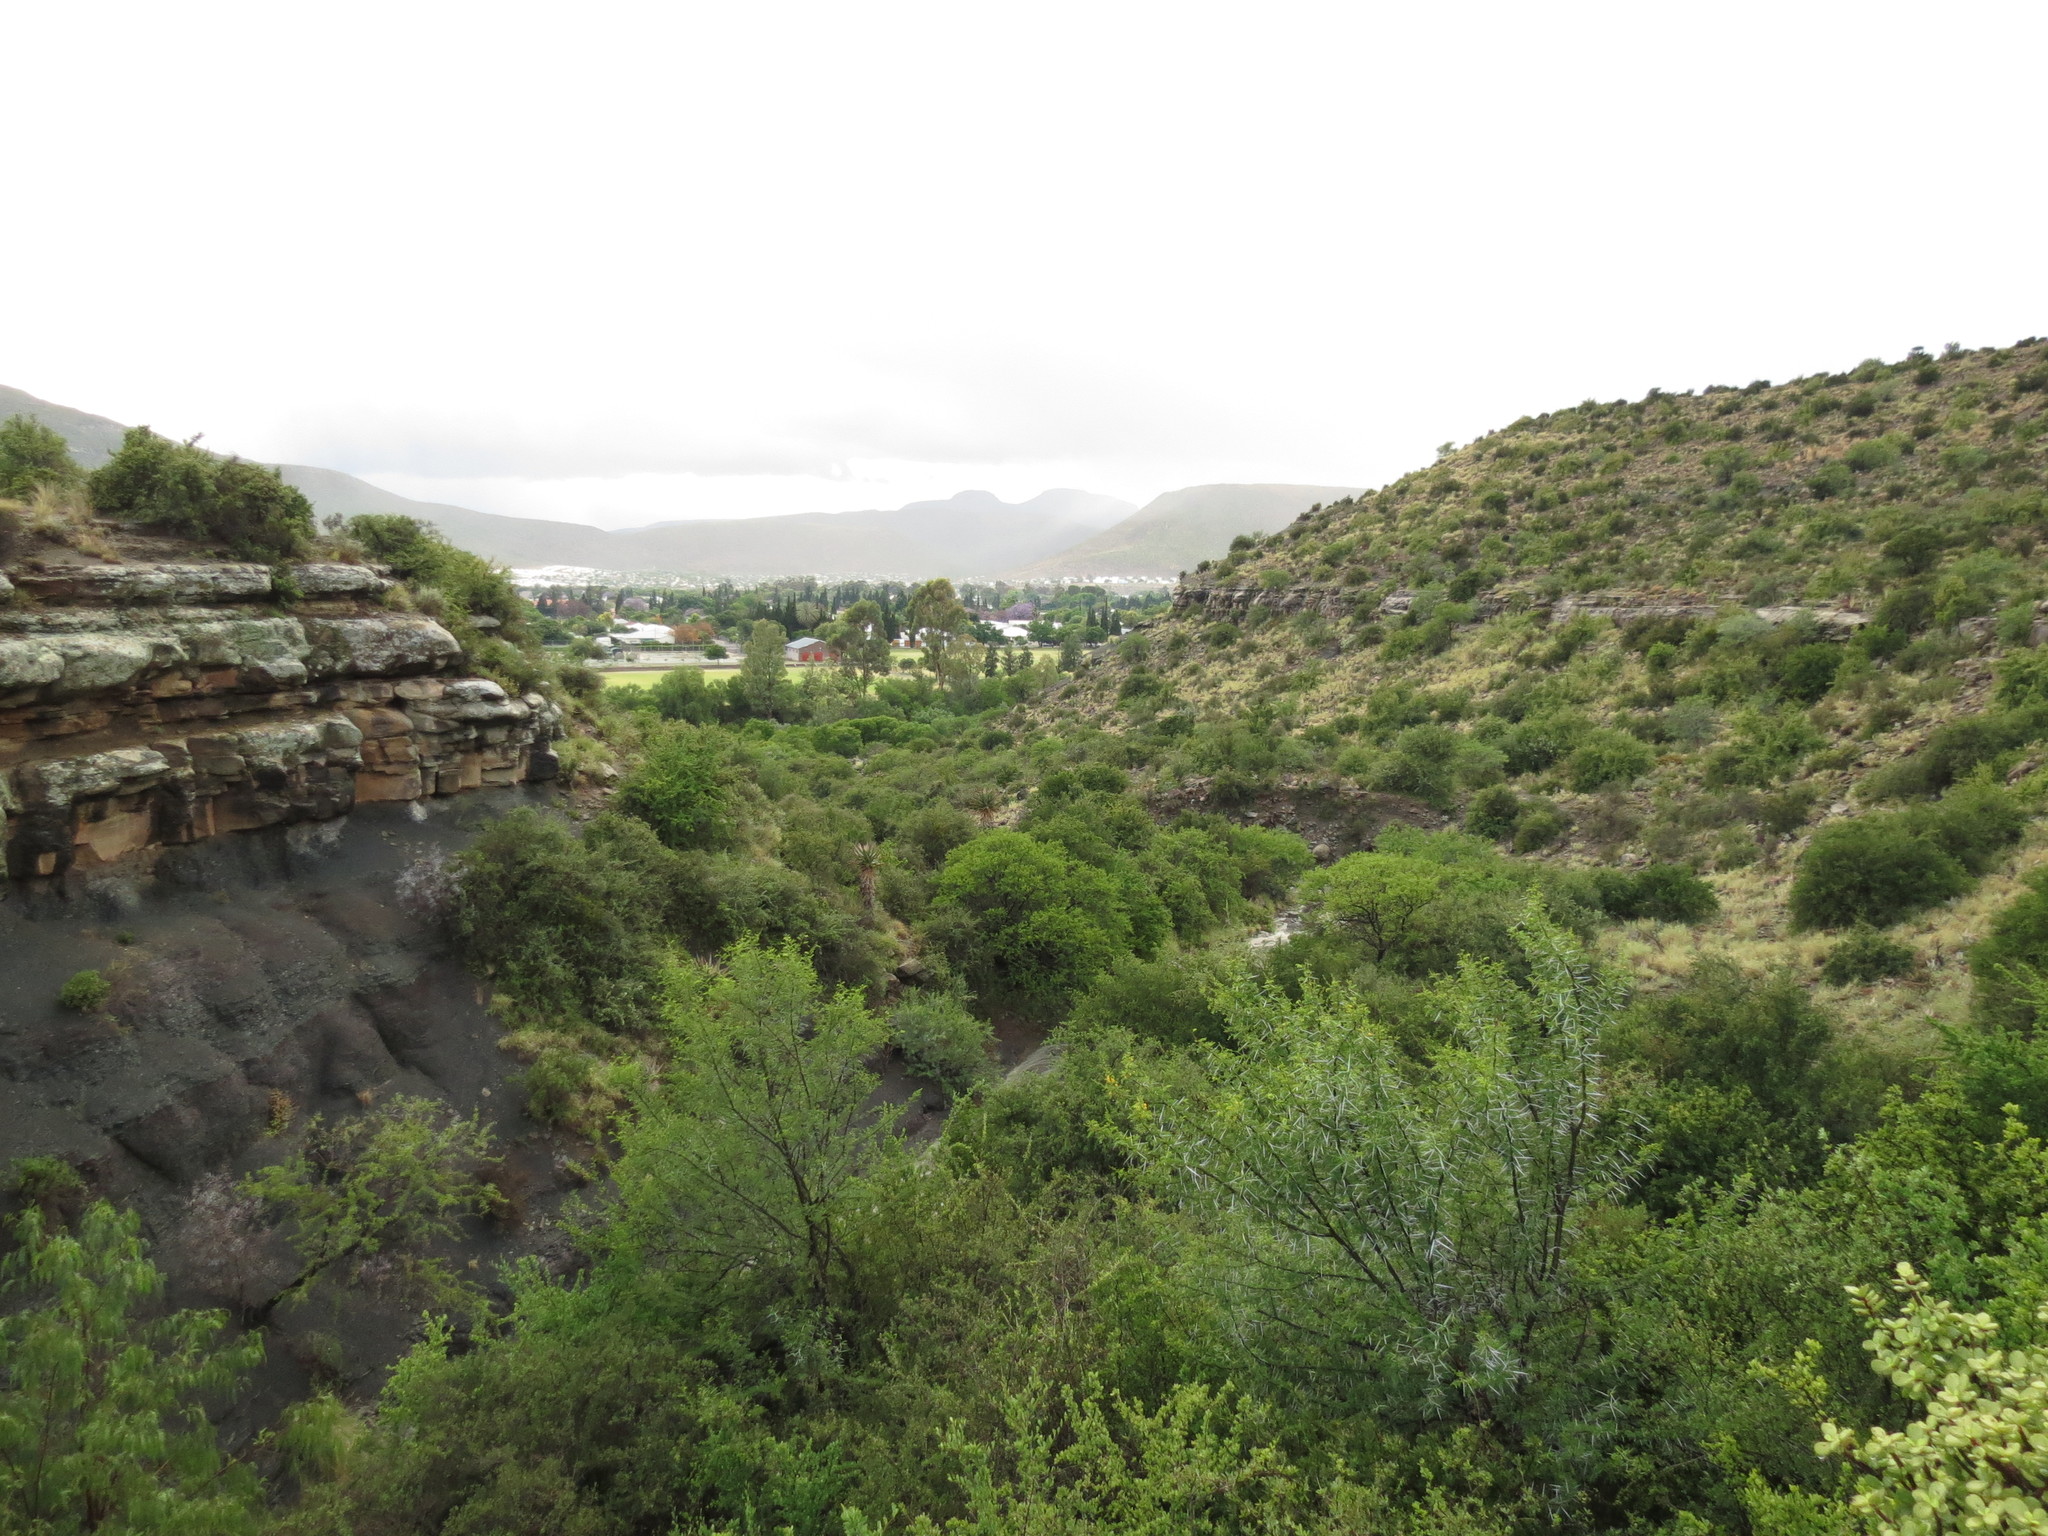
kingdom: Plantae
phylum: Tracheophyta
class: Magnoliopsida
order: Fabales
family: Fabaceae
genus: Vachellia
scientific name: Vachellia karroo
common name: Sweet thorn
